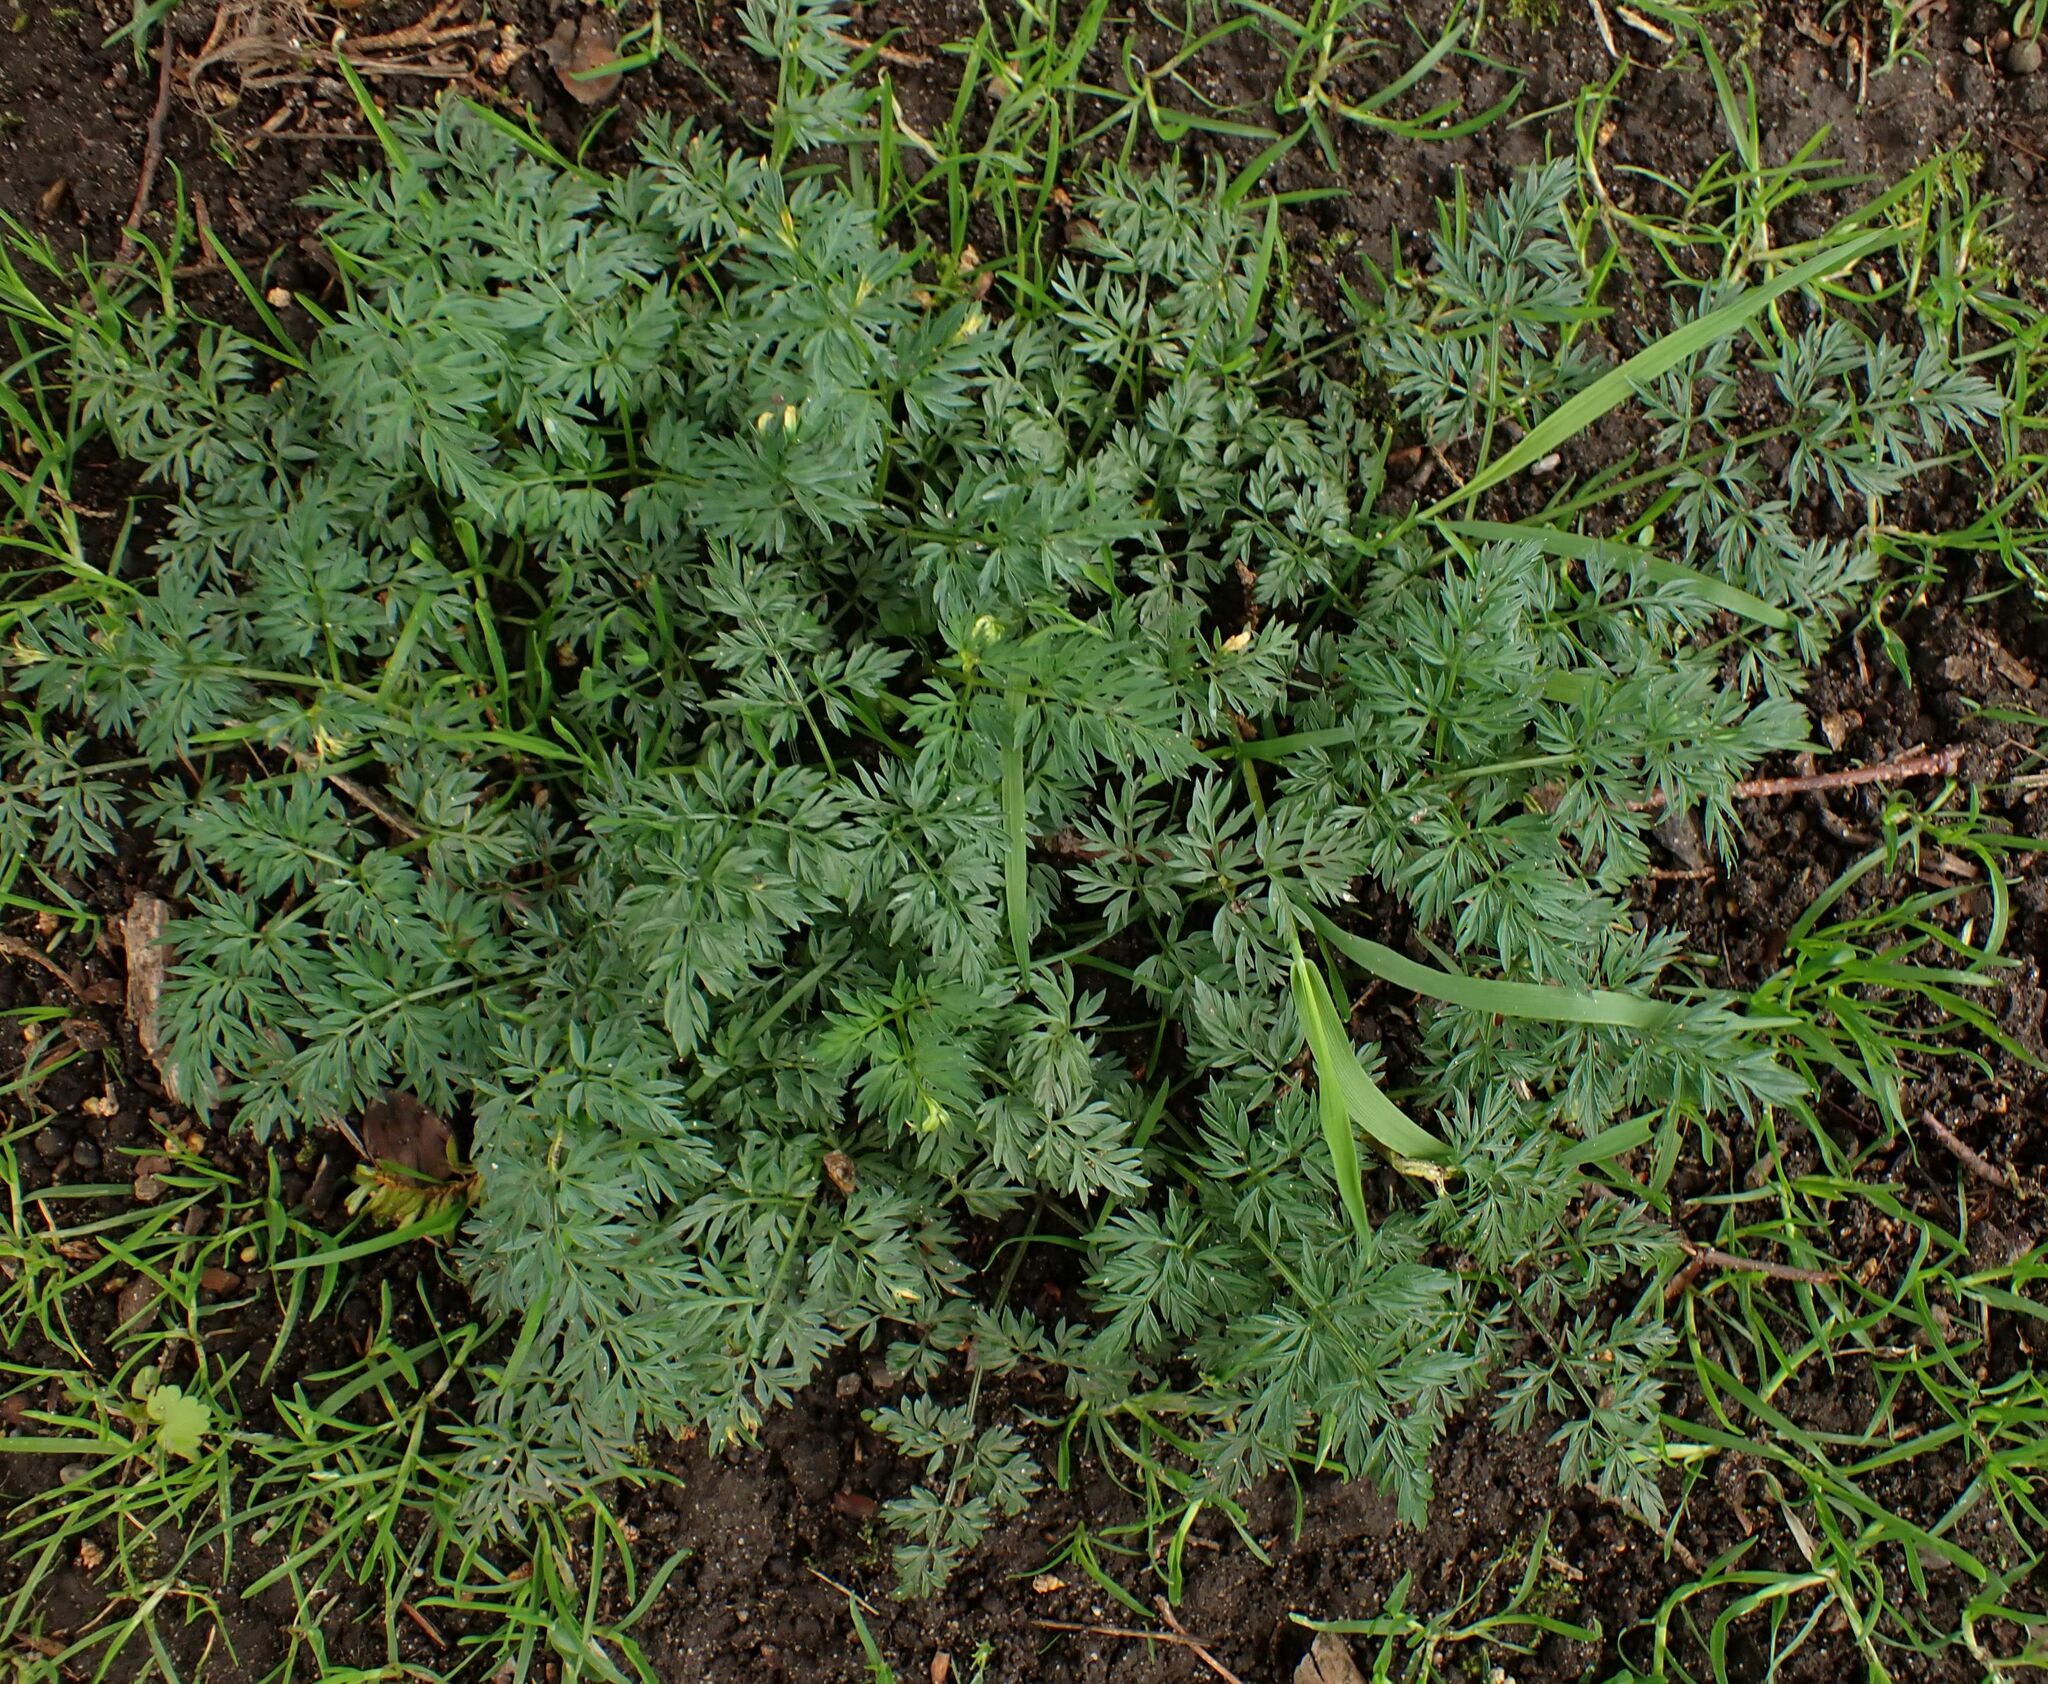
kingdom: Plantae
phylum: Tracheophyta
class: Magnoliopsida
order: Apiales
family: Apiaceae
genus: Conopodium
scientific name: Conopodium majus
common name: Pignut
